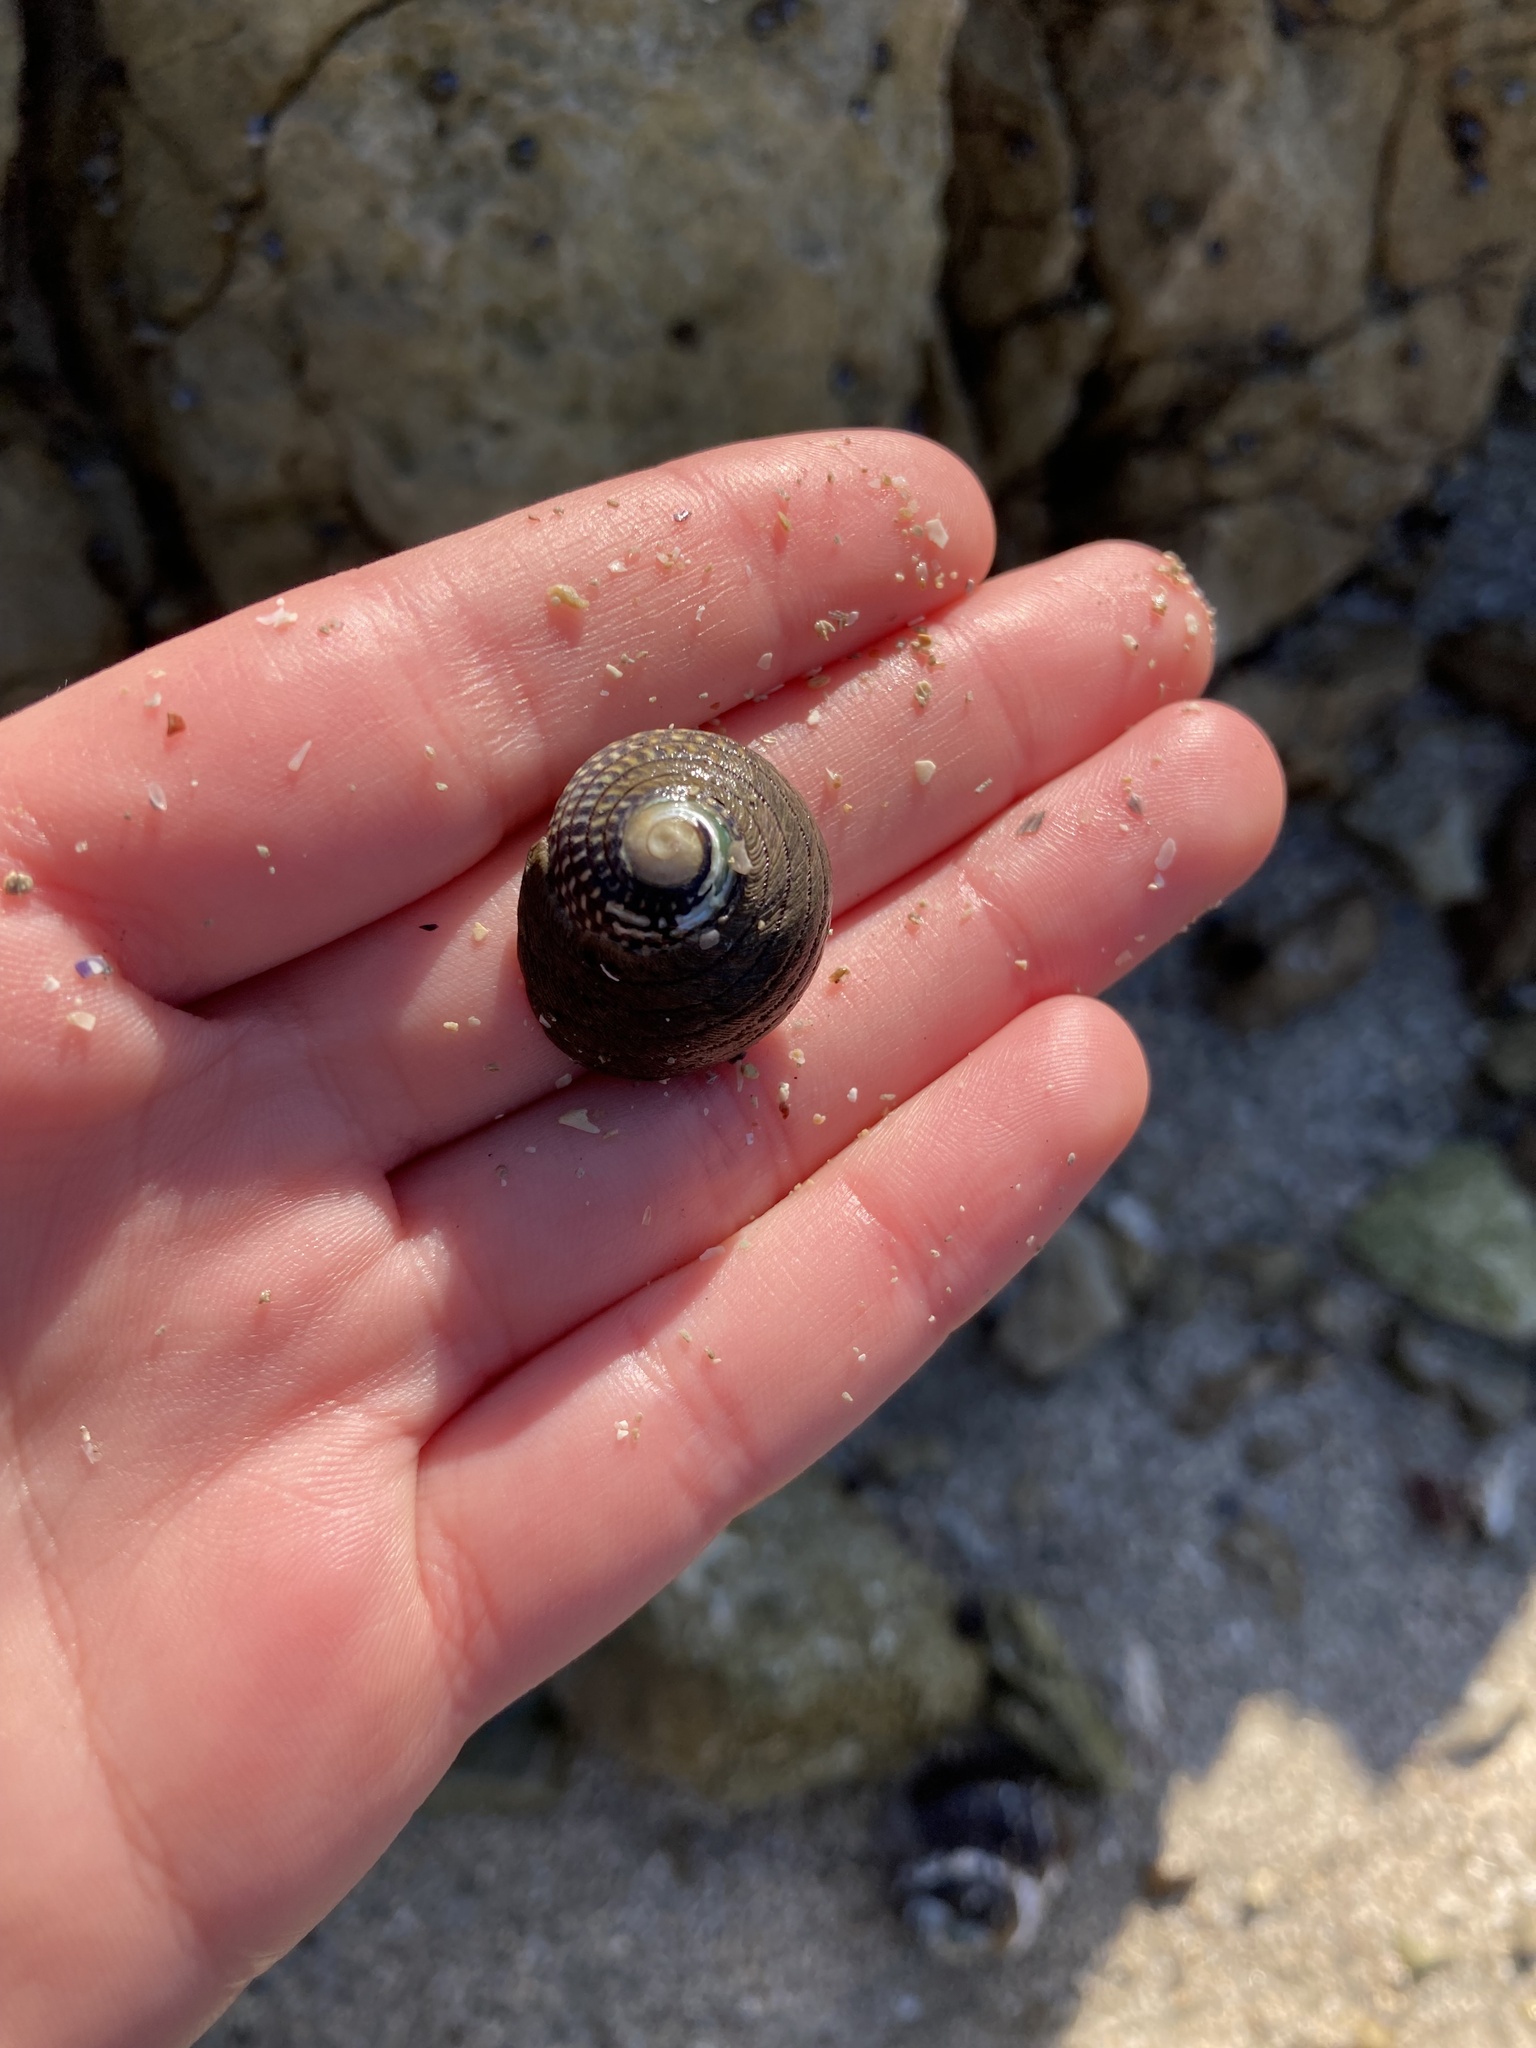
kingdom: Animalia
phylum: Mollusca
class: Gastropoda
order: Trochida
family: Trochidae
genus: Diloma
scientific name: Diloma aethiops
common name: Scorched monodont
